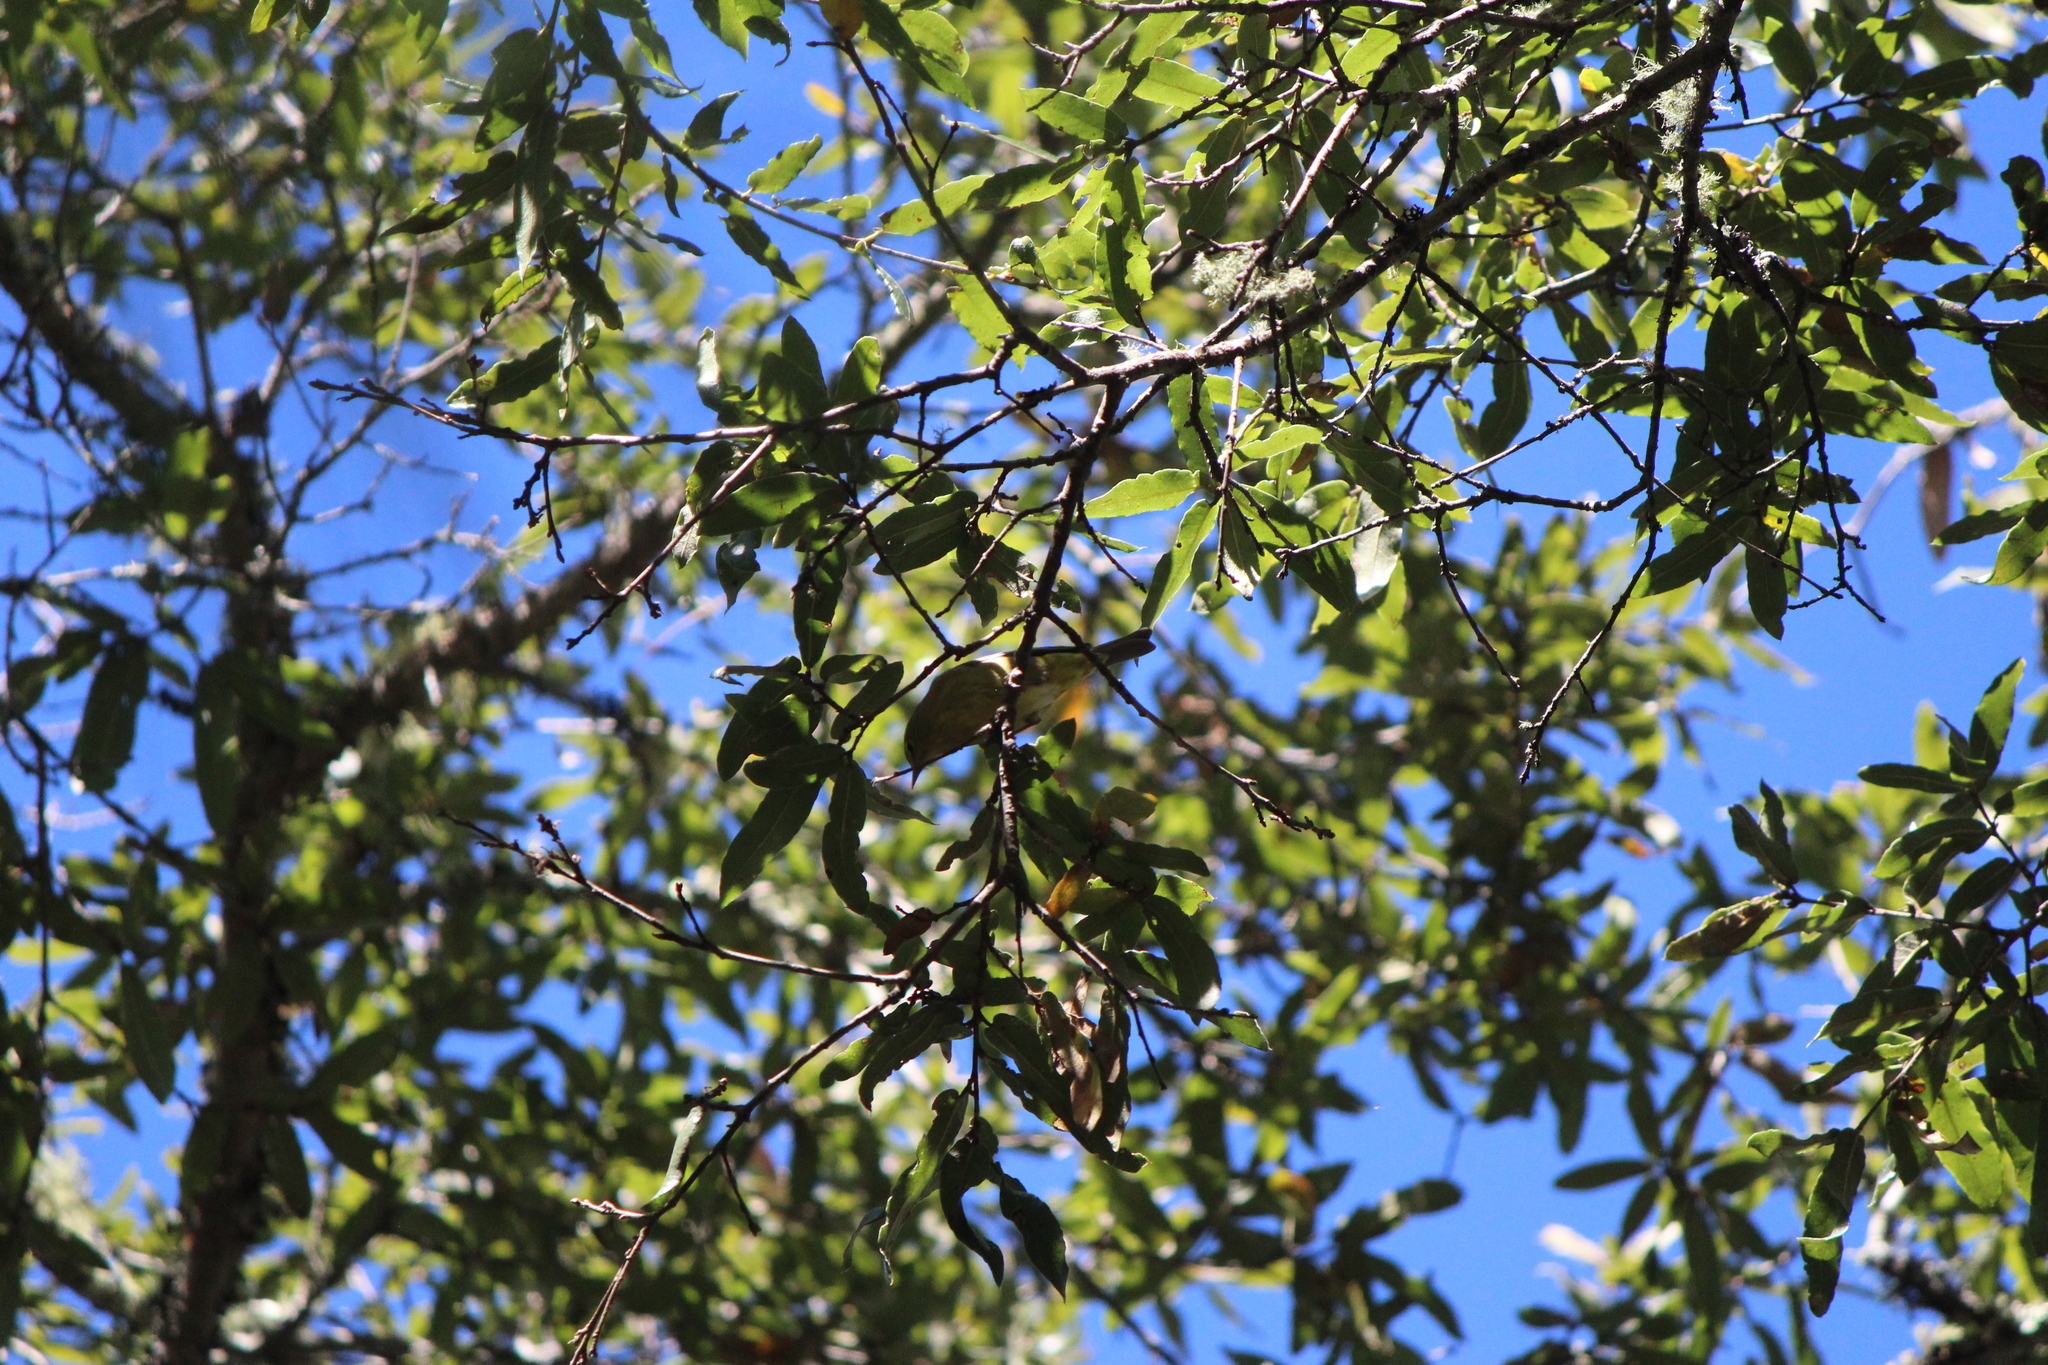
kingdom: Animalia
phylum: Chordata
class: Aves
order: Passeriformes
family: Parulidae
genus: Leiothlypis
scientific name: Leiothlypis celata
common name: Orange-crowned warbler
